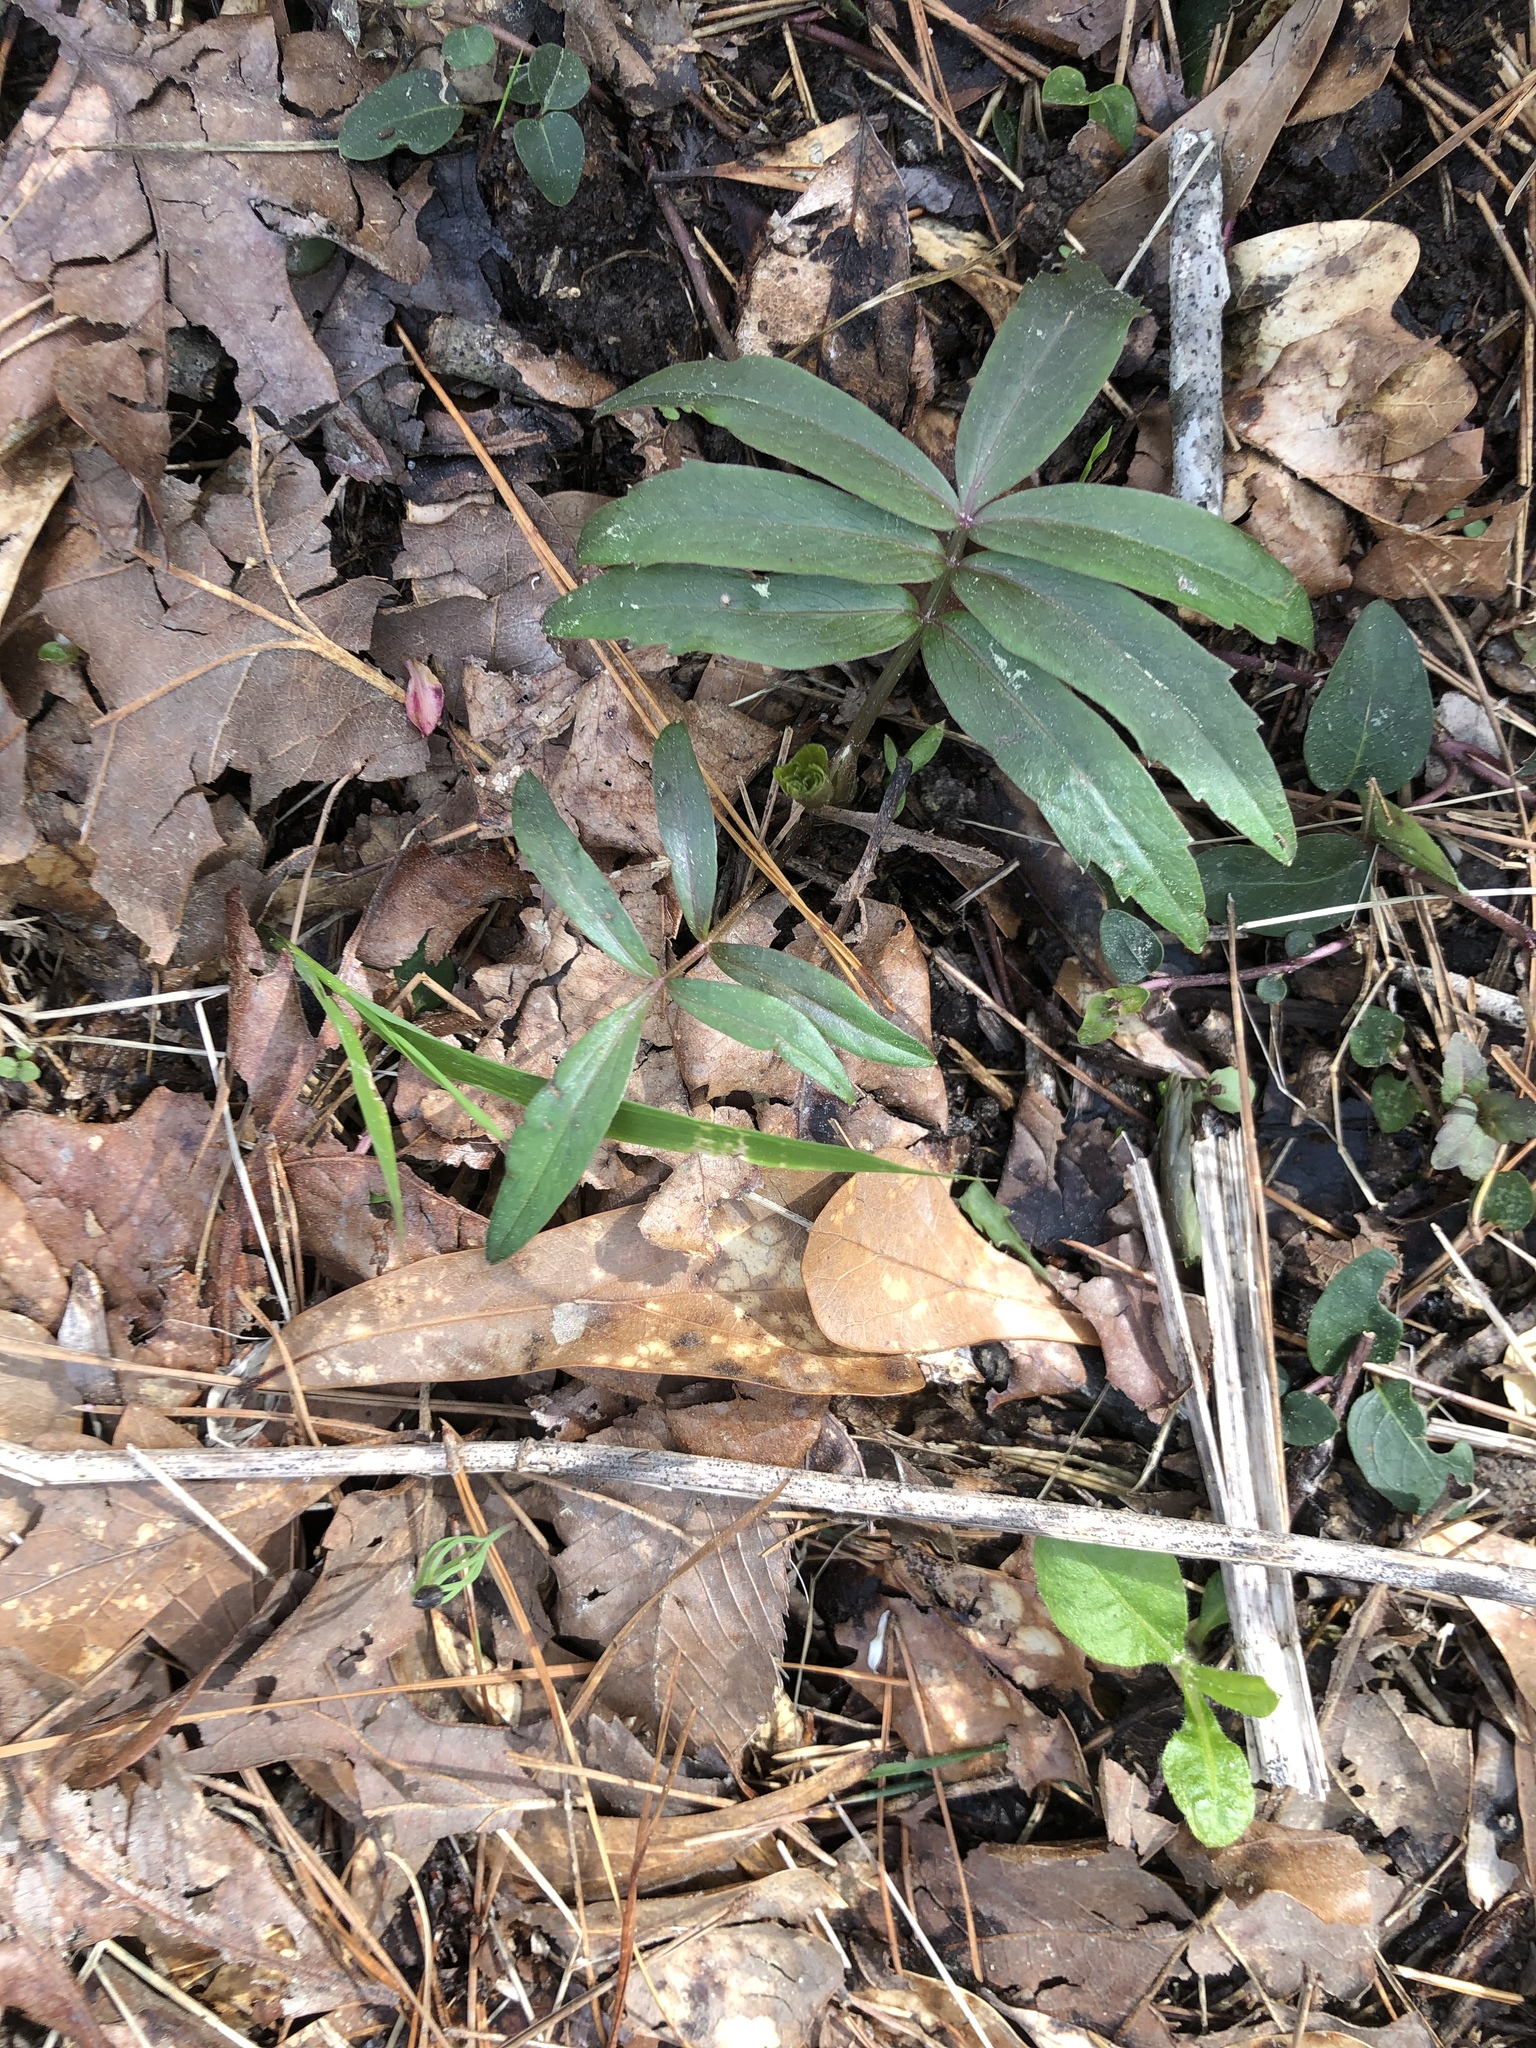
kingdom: Plantae
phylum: Tracheophyta
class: Magnoliopsida
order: Apiales
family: Apiaceae
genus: Oxypolis
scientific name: Oxypolis rigidior
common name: Cowbane
